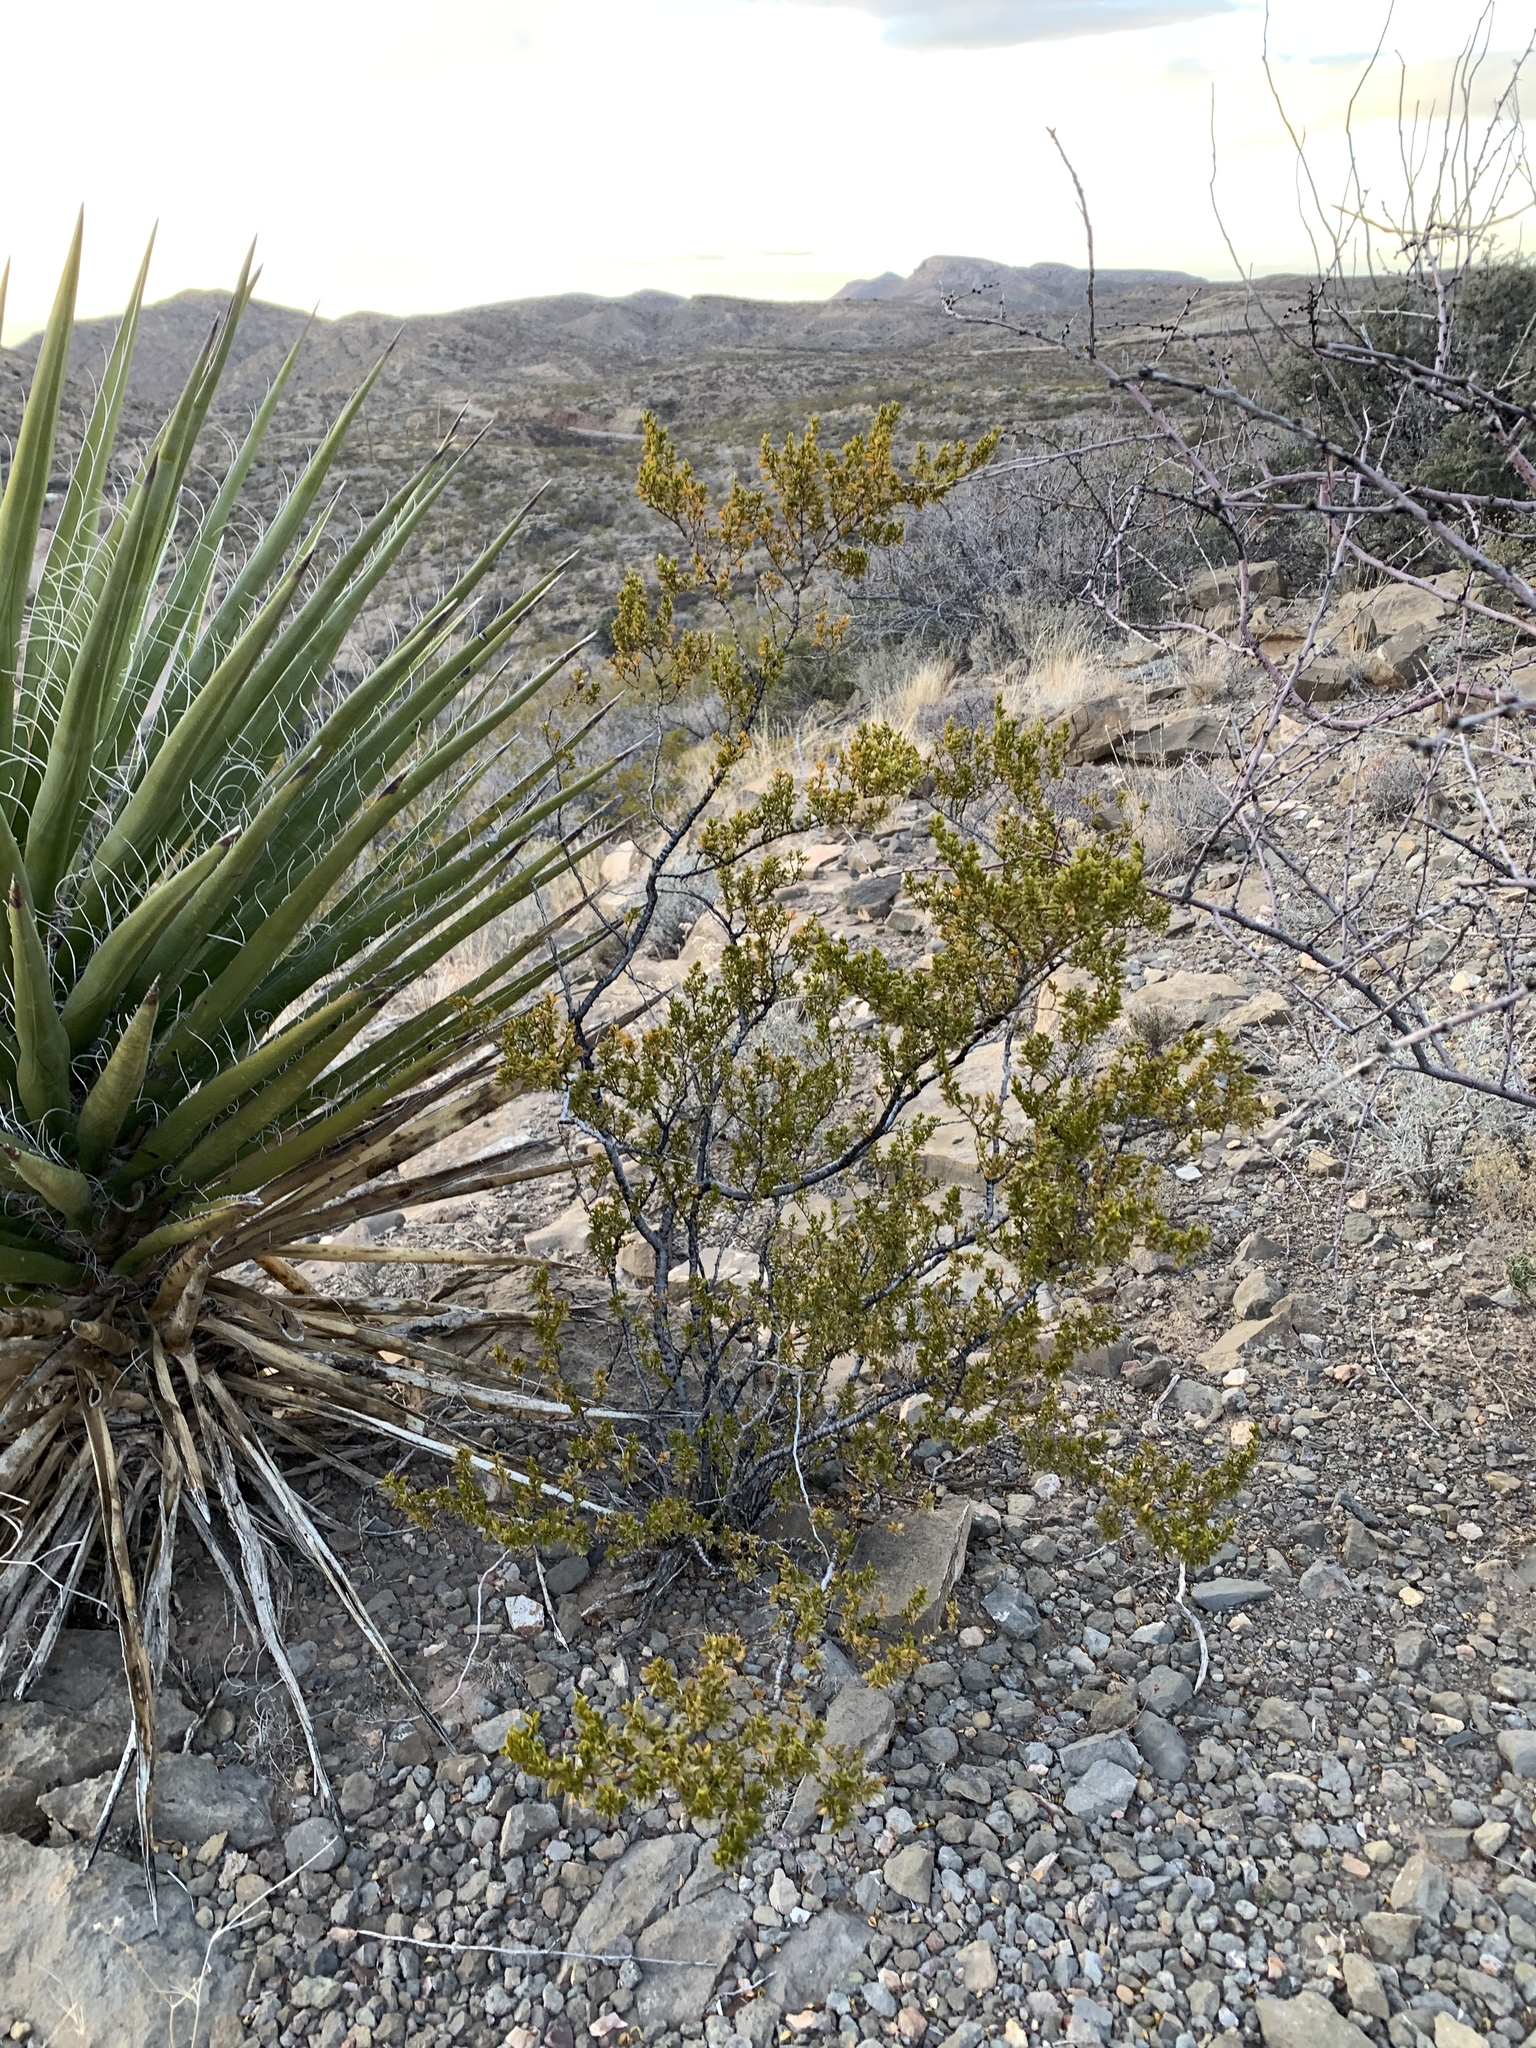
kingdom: Plantae
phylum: Tracheophyta
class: Magnoliopsida
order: Zygophyllales
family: Zygophyllaceae
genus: Larrea
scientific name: Larrea tridentata
